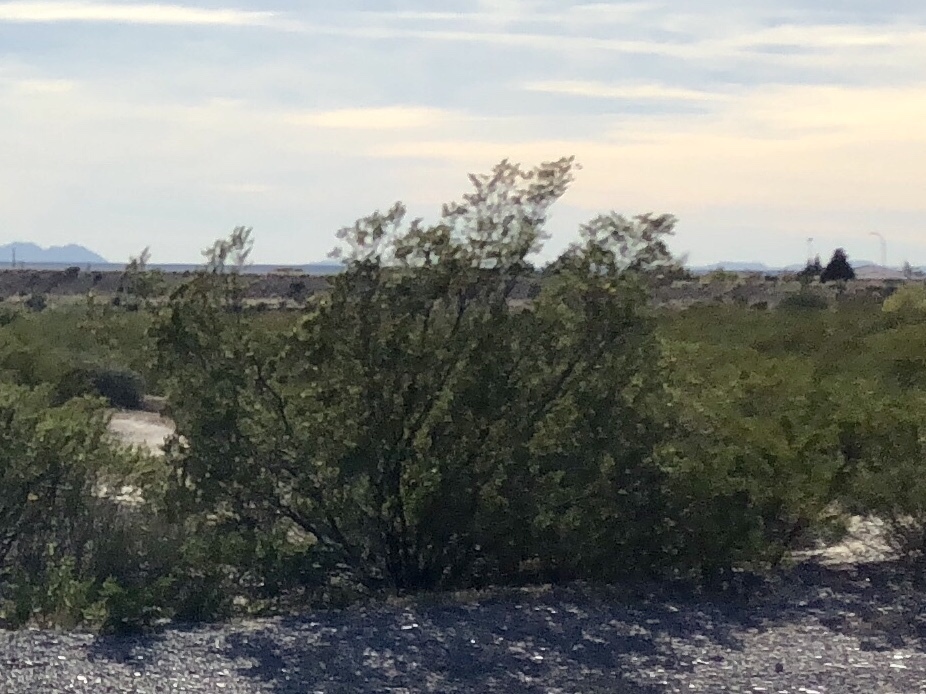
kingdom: Plantae
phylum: Tracheophyta
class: Magnoliopsida
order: Zygophyllales
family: Zygophyllaceae
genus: Larrea
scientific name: Larrea tridentata
